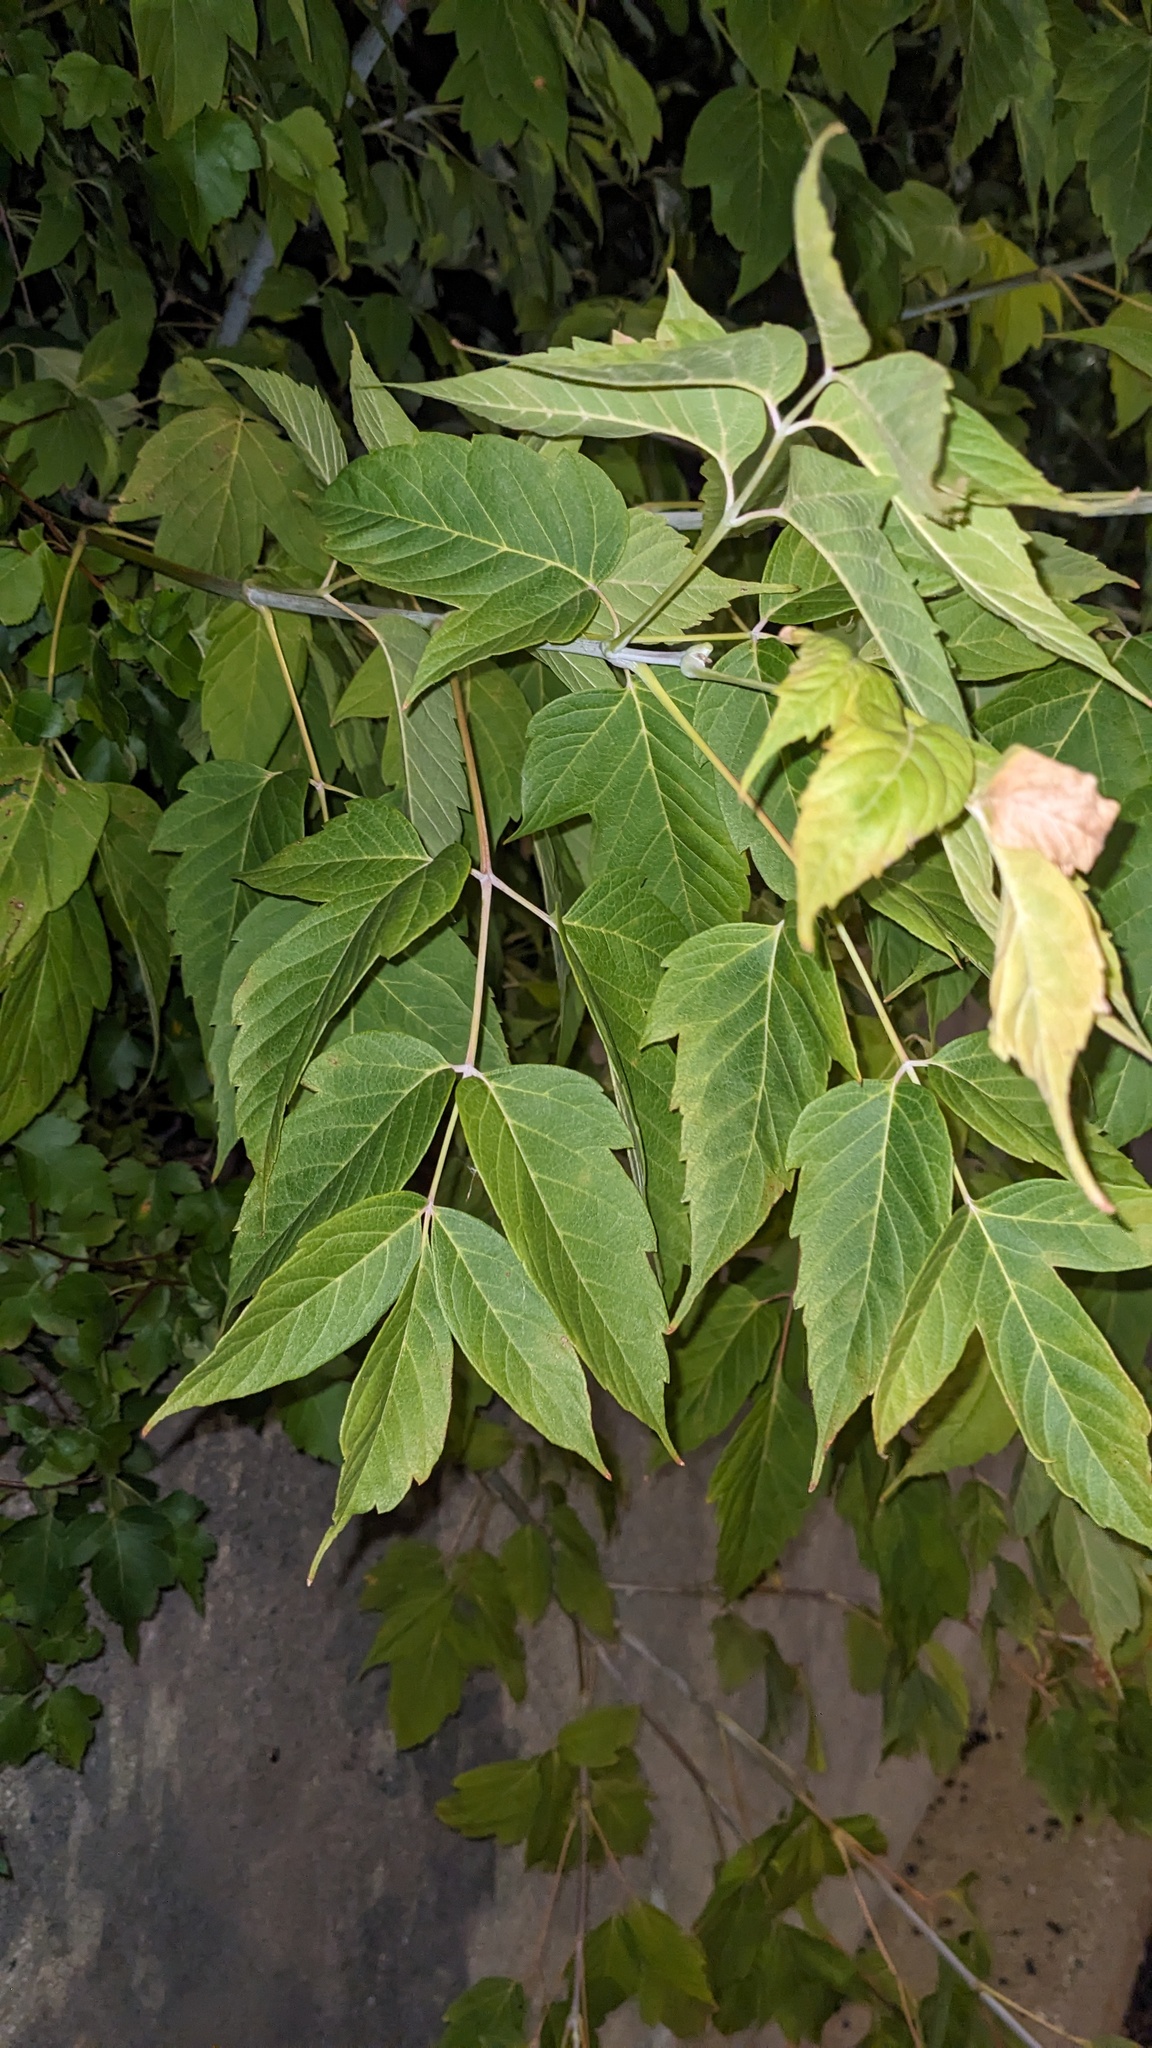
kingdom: Plantae
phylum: Tracheophyta
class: Magnoliopsida
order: Sapindales
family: Sapindaceae
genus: Acer
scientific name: Acer negundo
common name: Ashleaf maple
